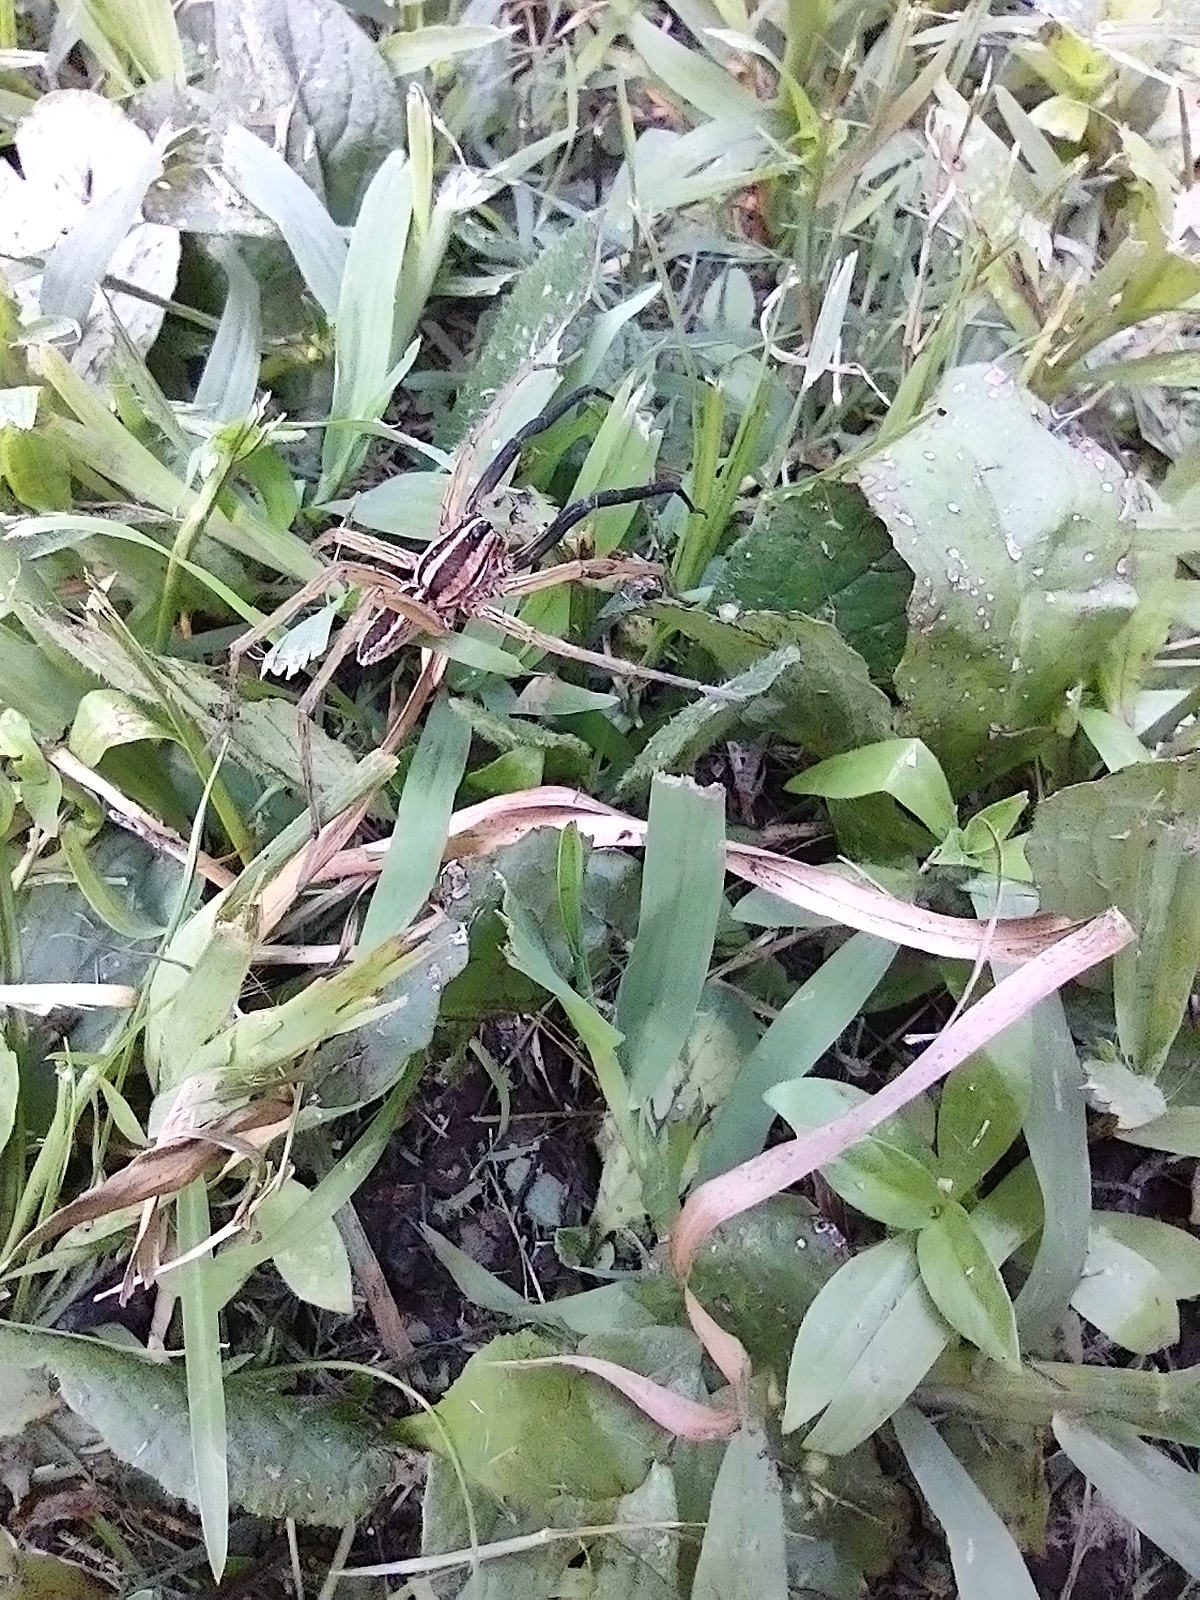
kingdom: Animalia
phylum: Arthropoda
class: Arachnida
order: Araneae
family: Lycosidae
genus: Rabidosa
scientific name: Rabidosa rabida
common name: Rabid wolf spider
